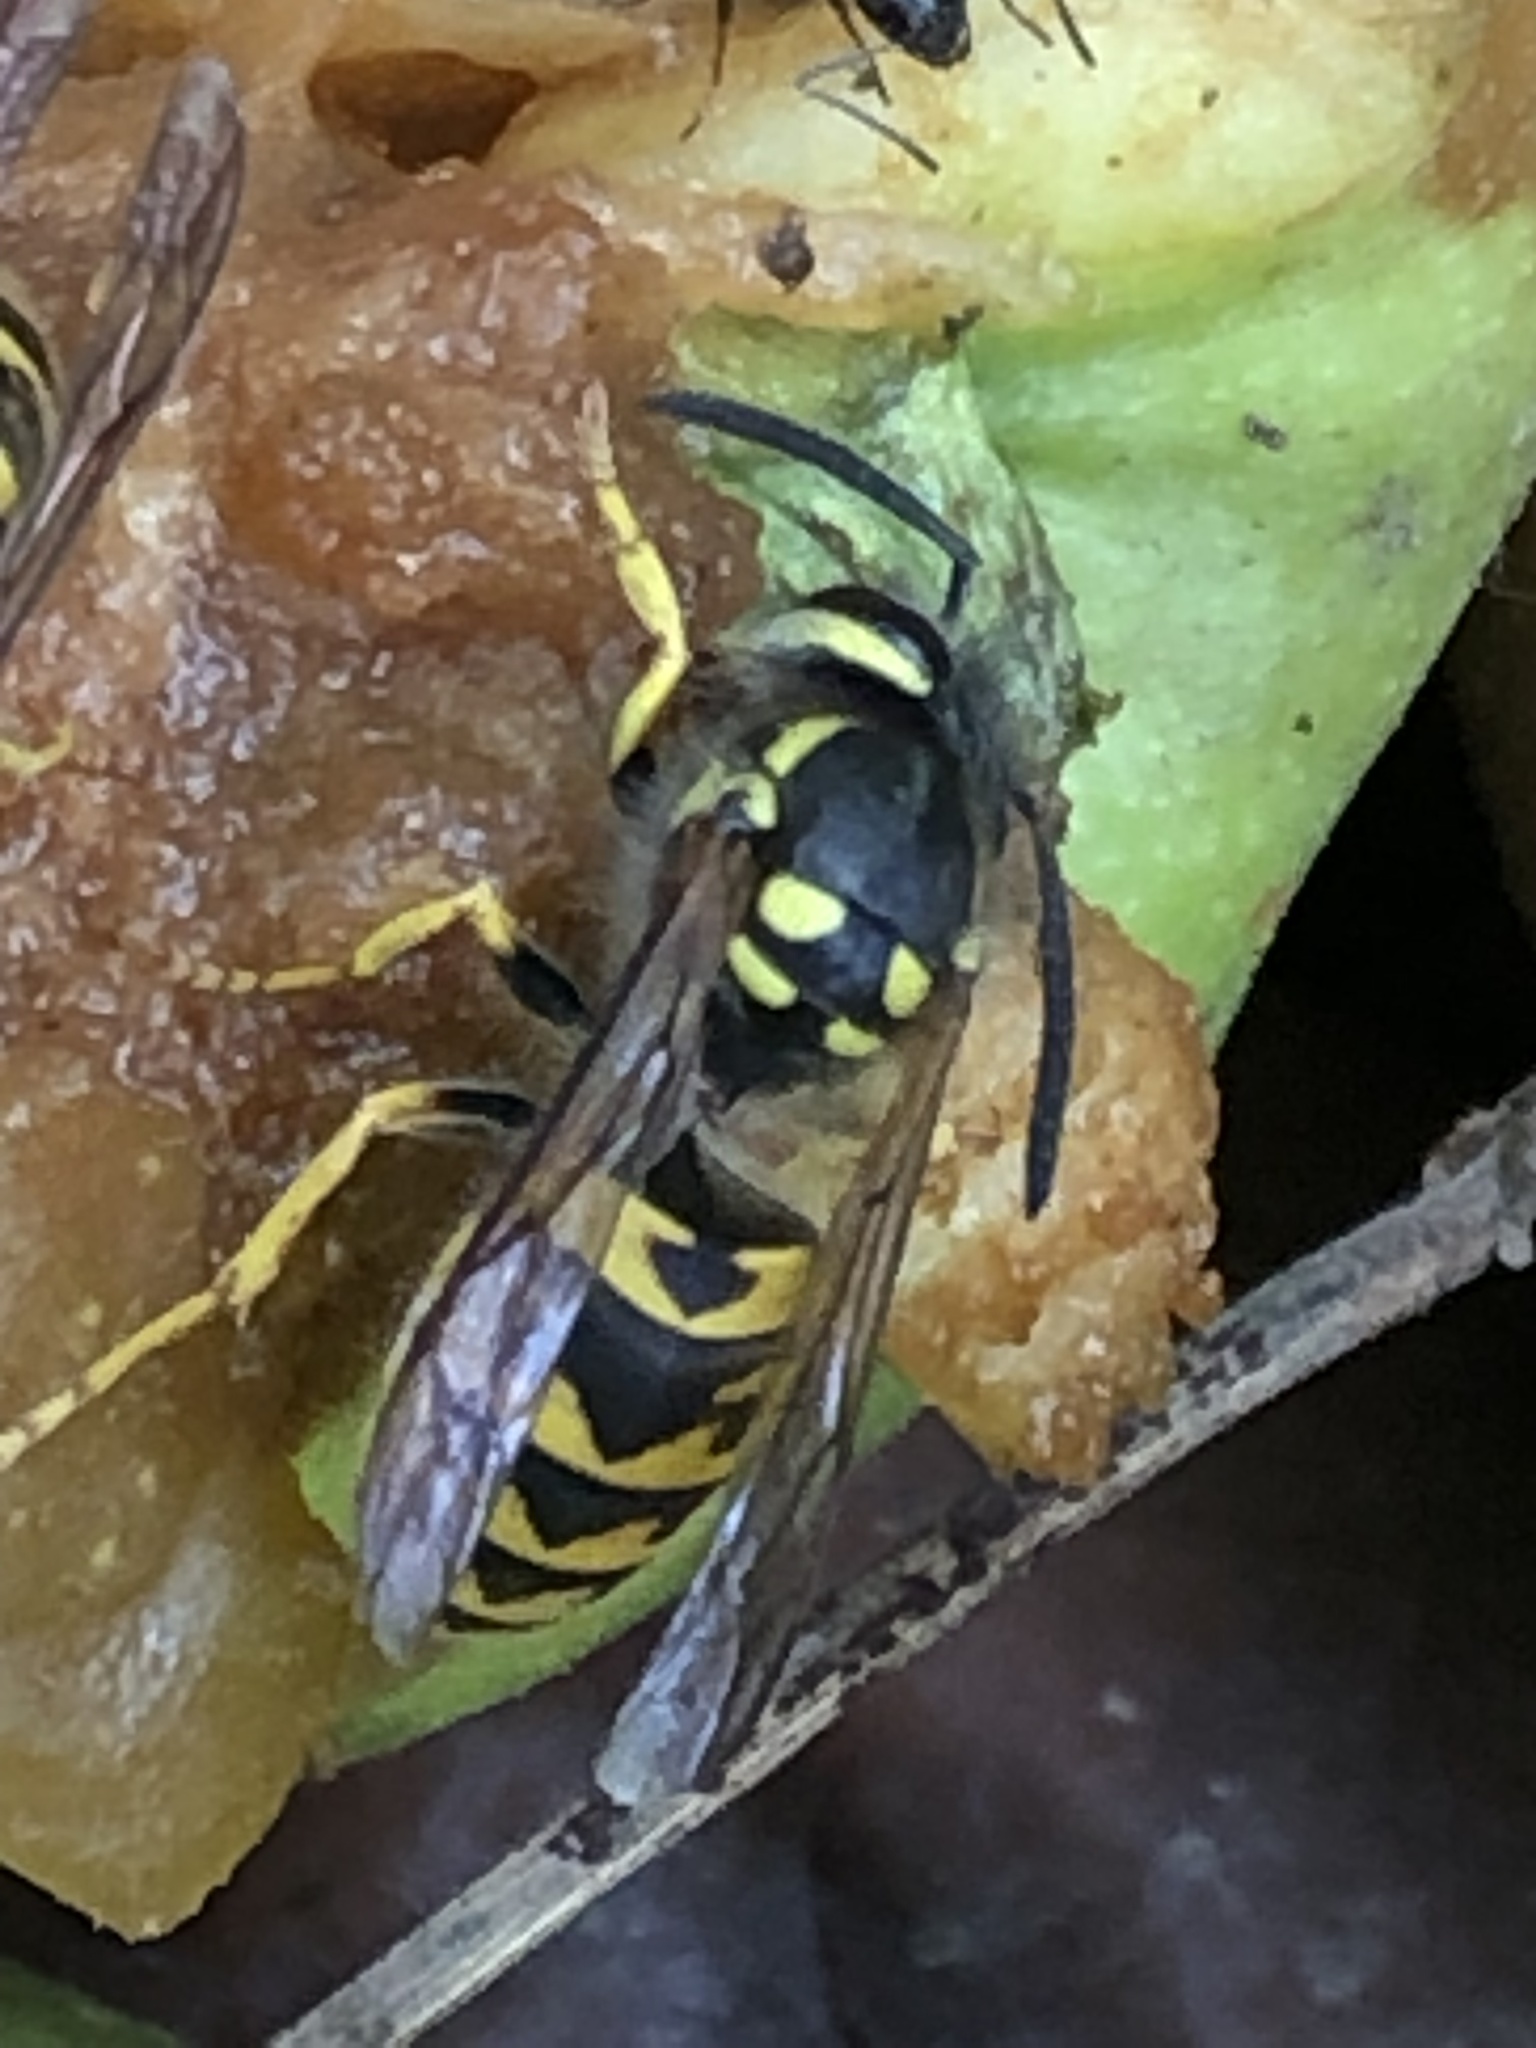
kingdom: Animalia
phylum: Arthropoda
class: Insecta
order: Hymenoptera
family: Vespidae
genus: Vespula
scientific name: Vespula germanica
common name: German wasp
